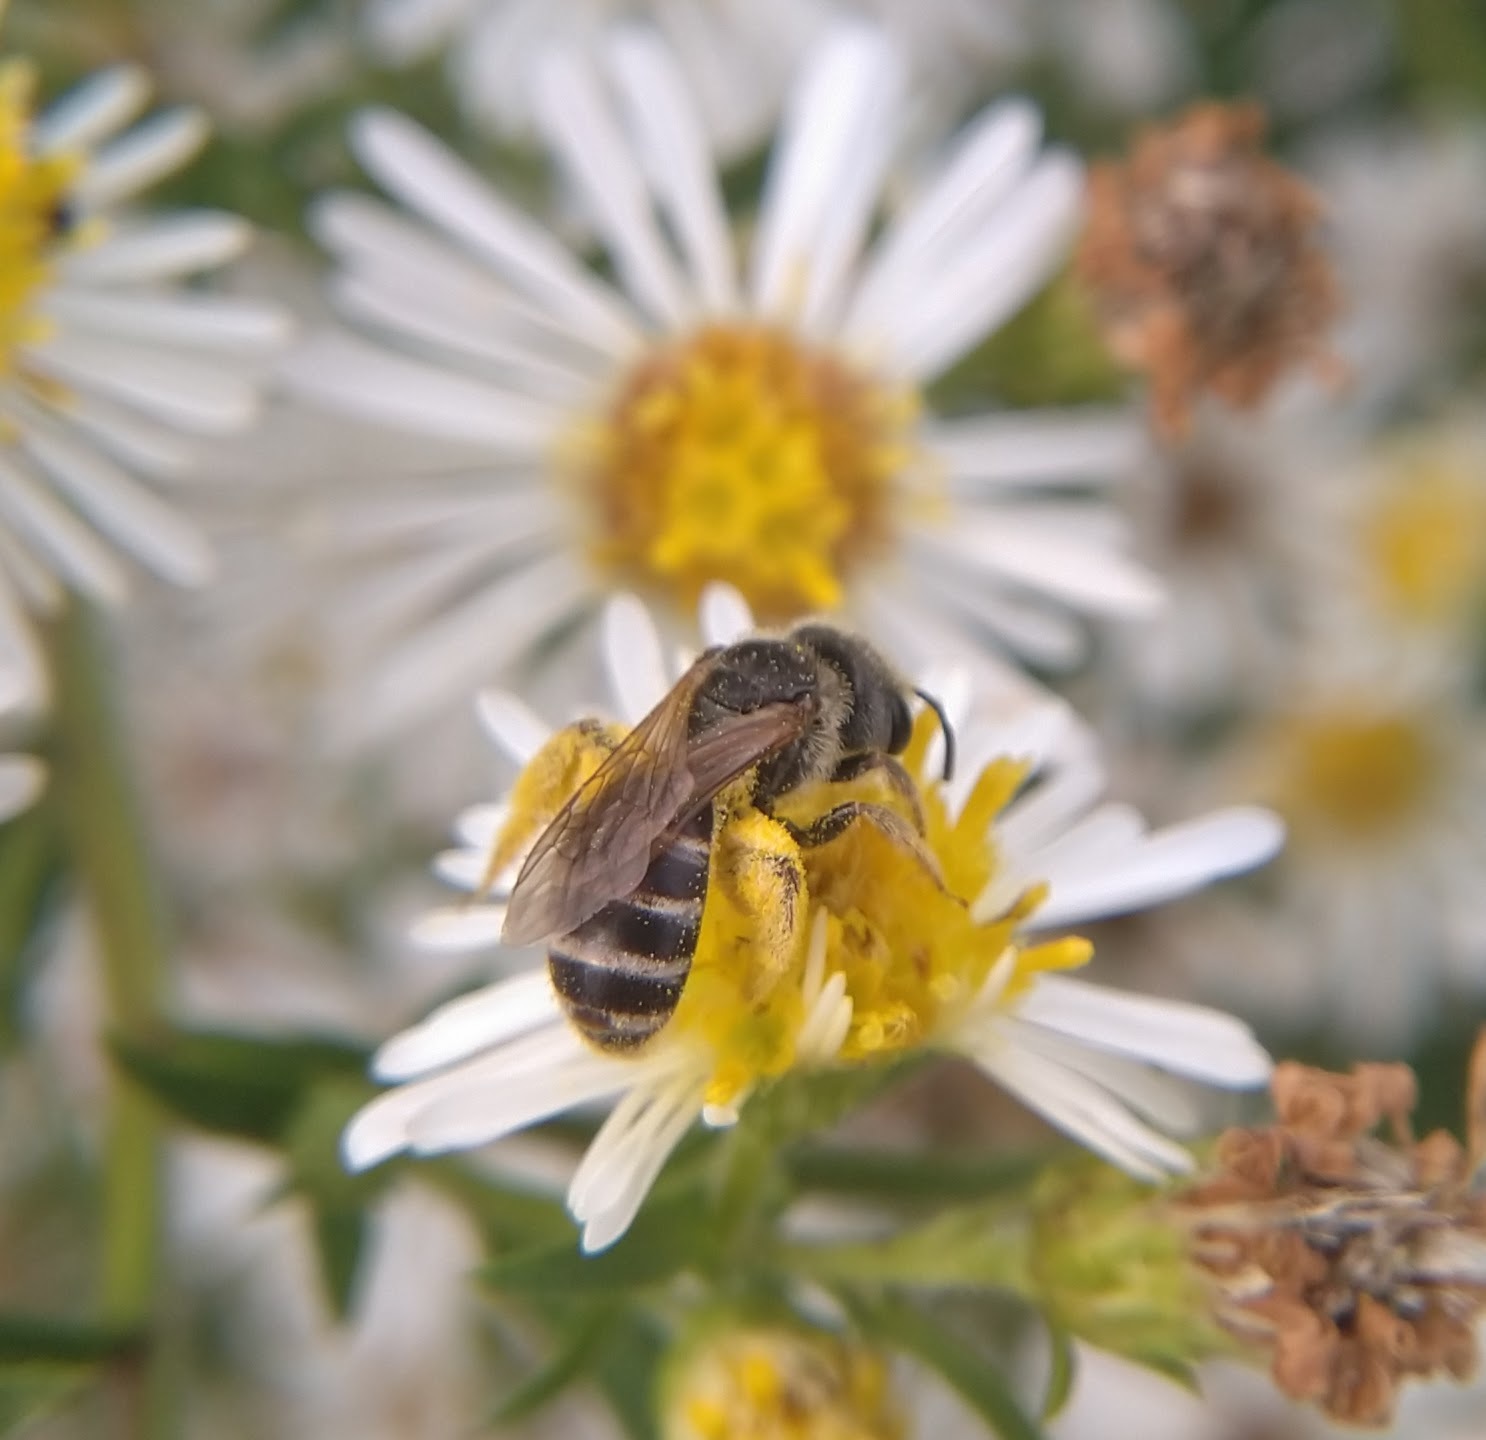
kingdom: Animalia
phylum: Arthropoda
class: Insecta
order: Hymenoptera
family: Halictidae
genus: Halictus
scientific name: Halictus ligatus
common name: Ligated furrow bee
